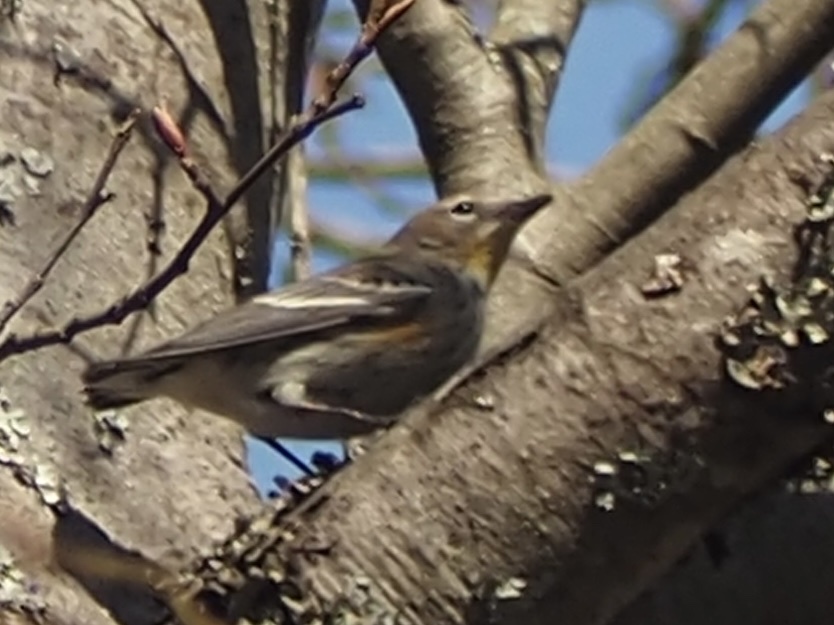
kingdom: Animalia
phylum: Chordata
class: Aves
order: Passeriformes
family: Parulidae
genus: Setophaga
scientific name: Setophaga coronata
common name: Myrtle warbler
